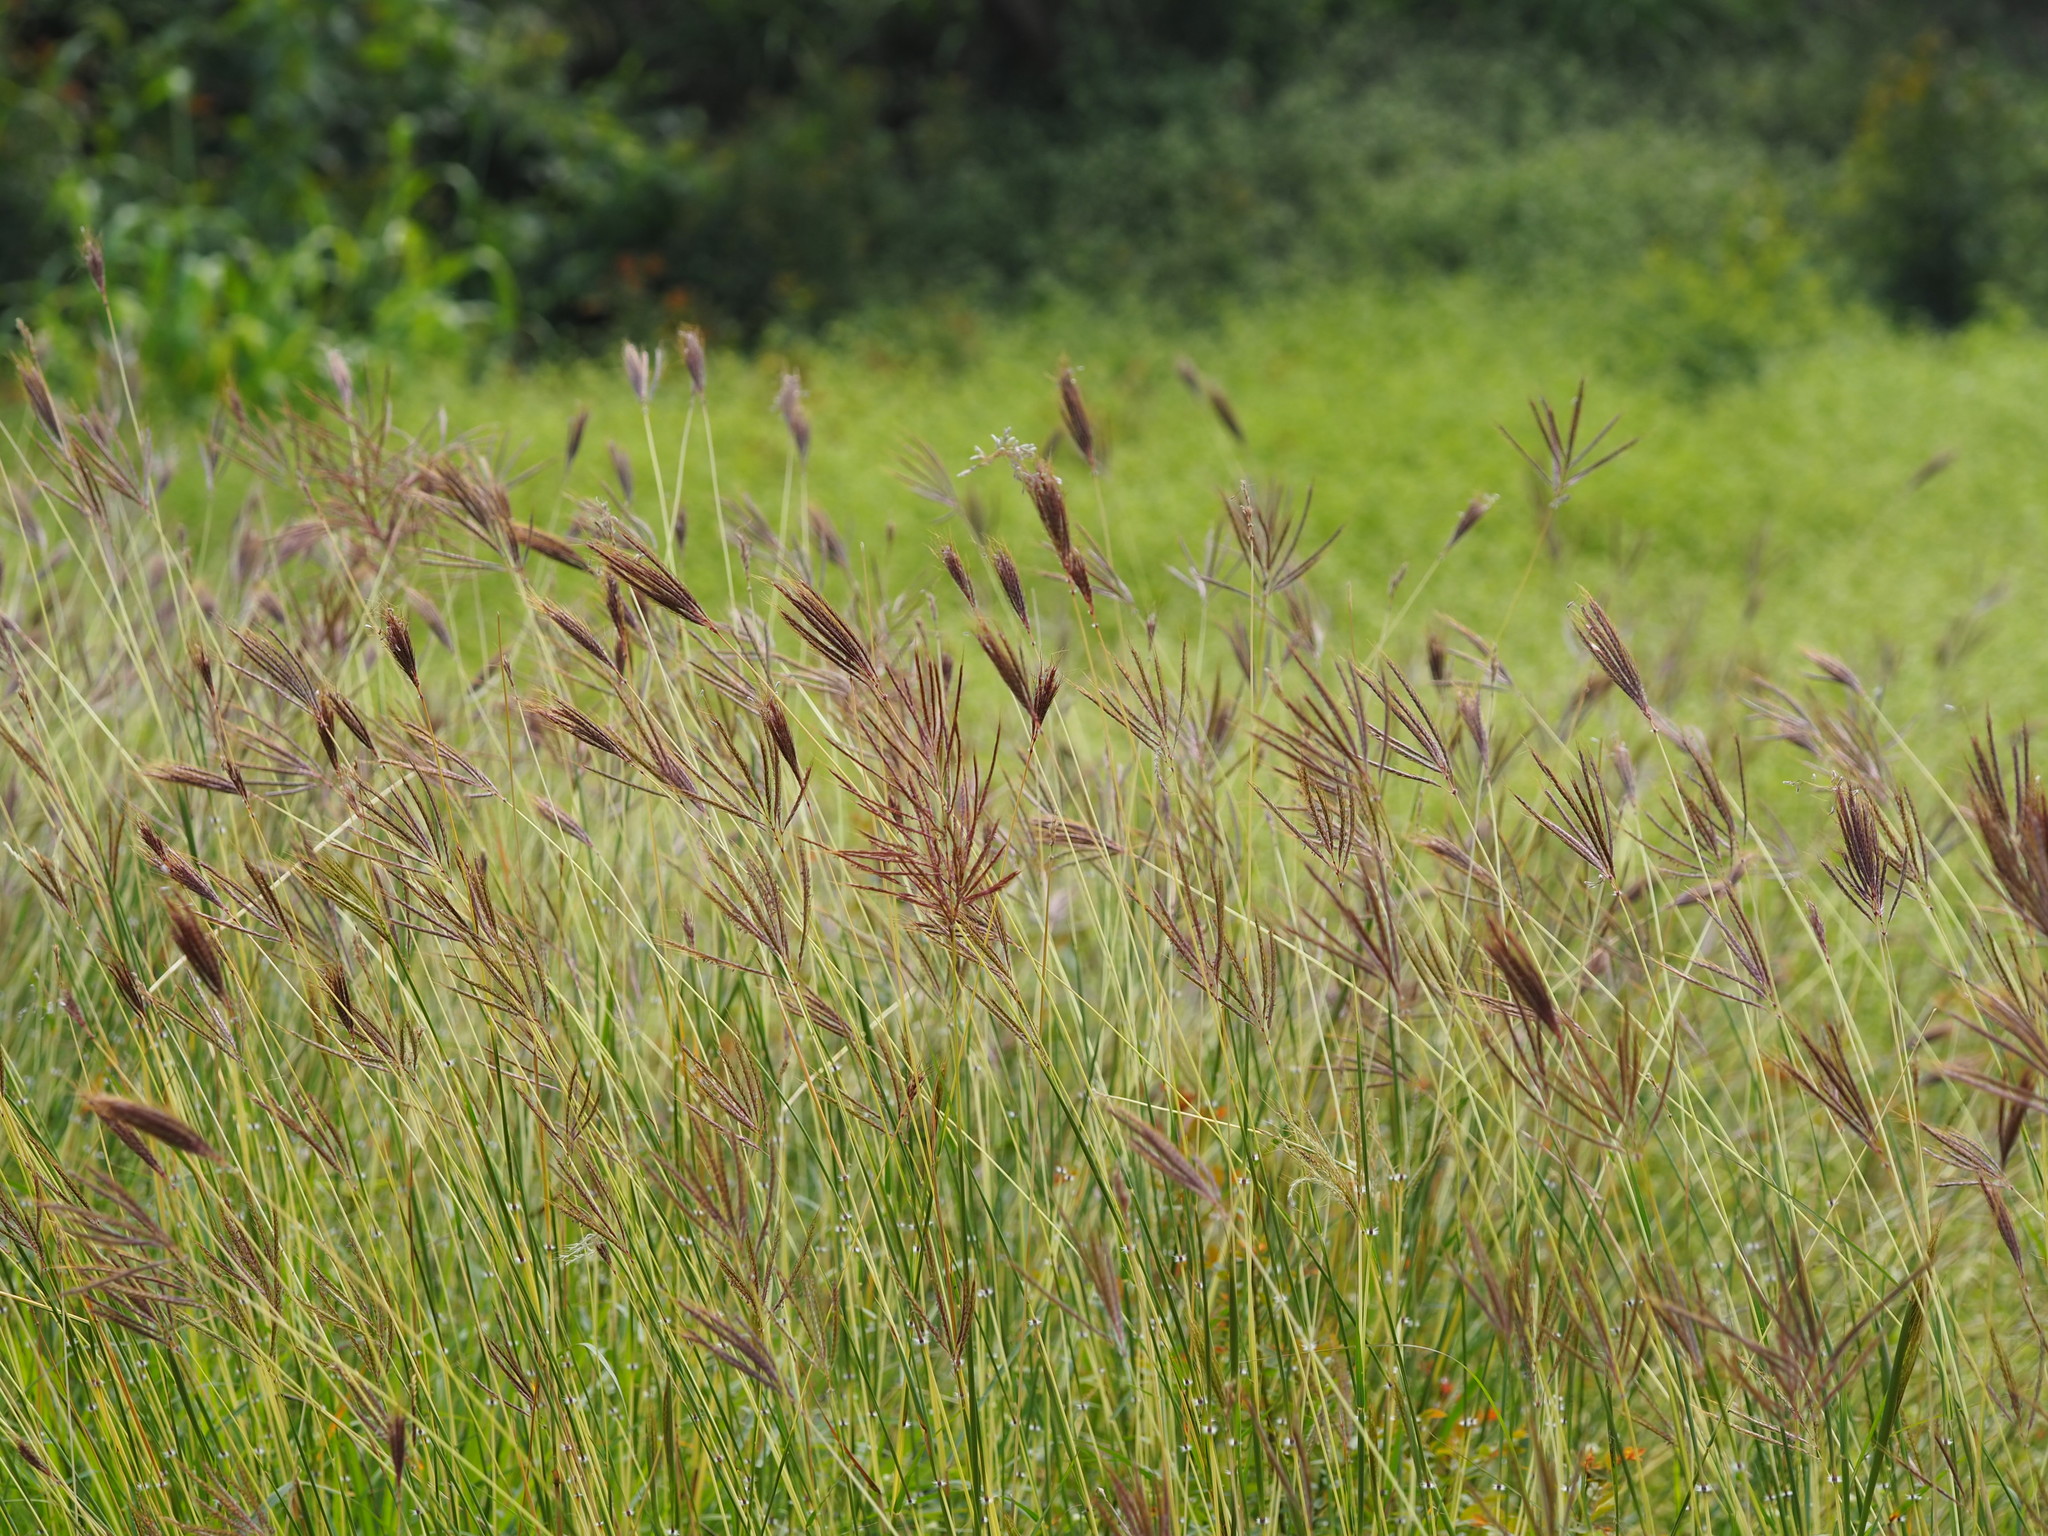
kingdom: Plantae
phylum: Tracheophyta
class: Liliopsida
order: Poales
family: Poaceae
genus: Dichanthium
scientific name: Dichanthium annulatum
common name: Kleberg's bluestem
